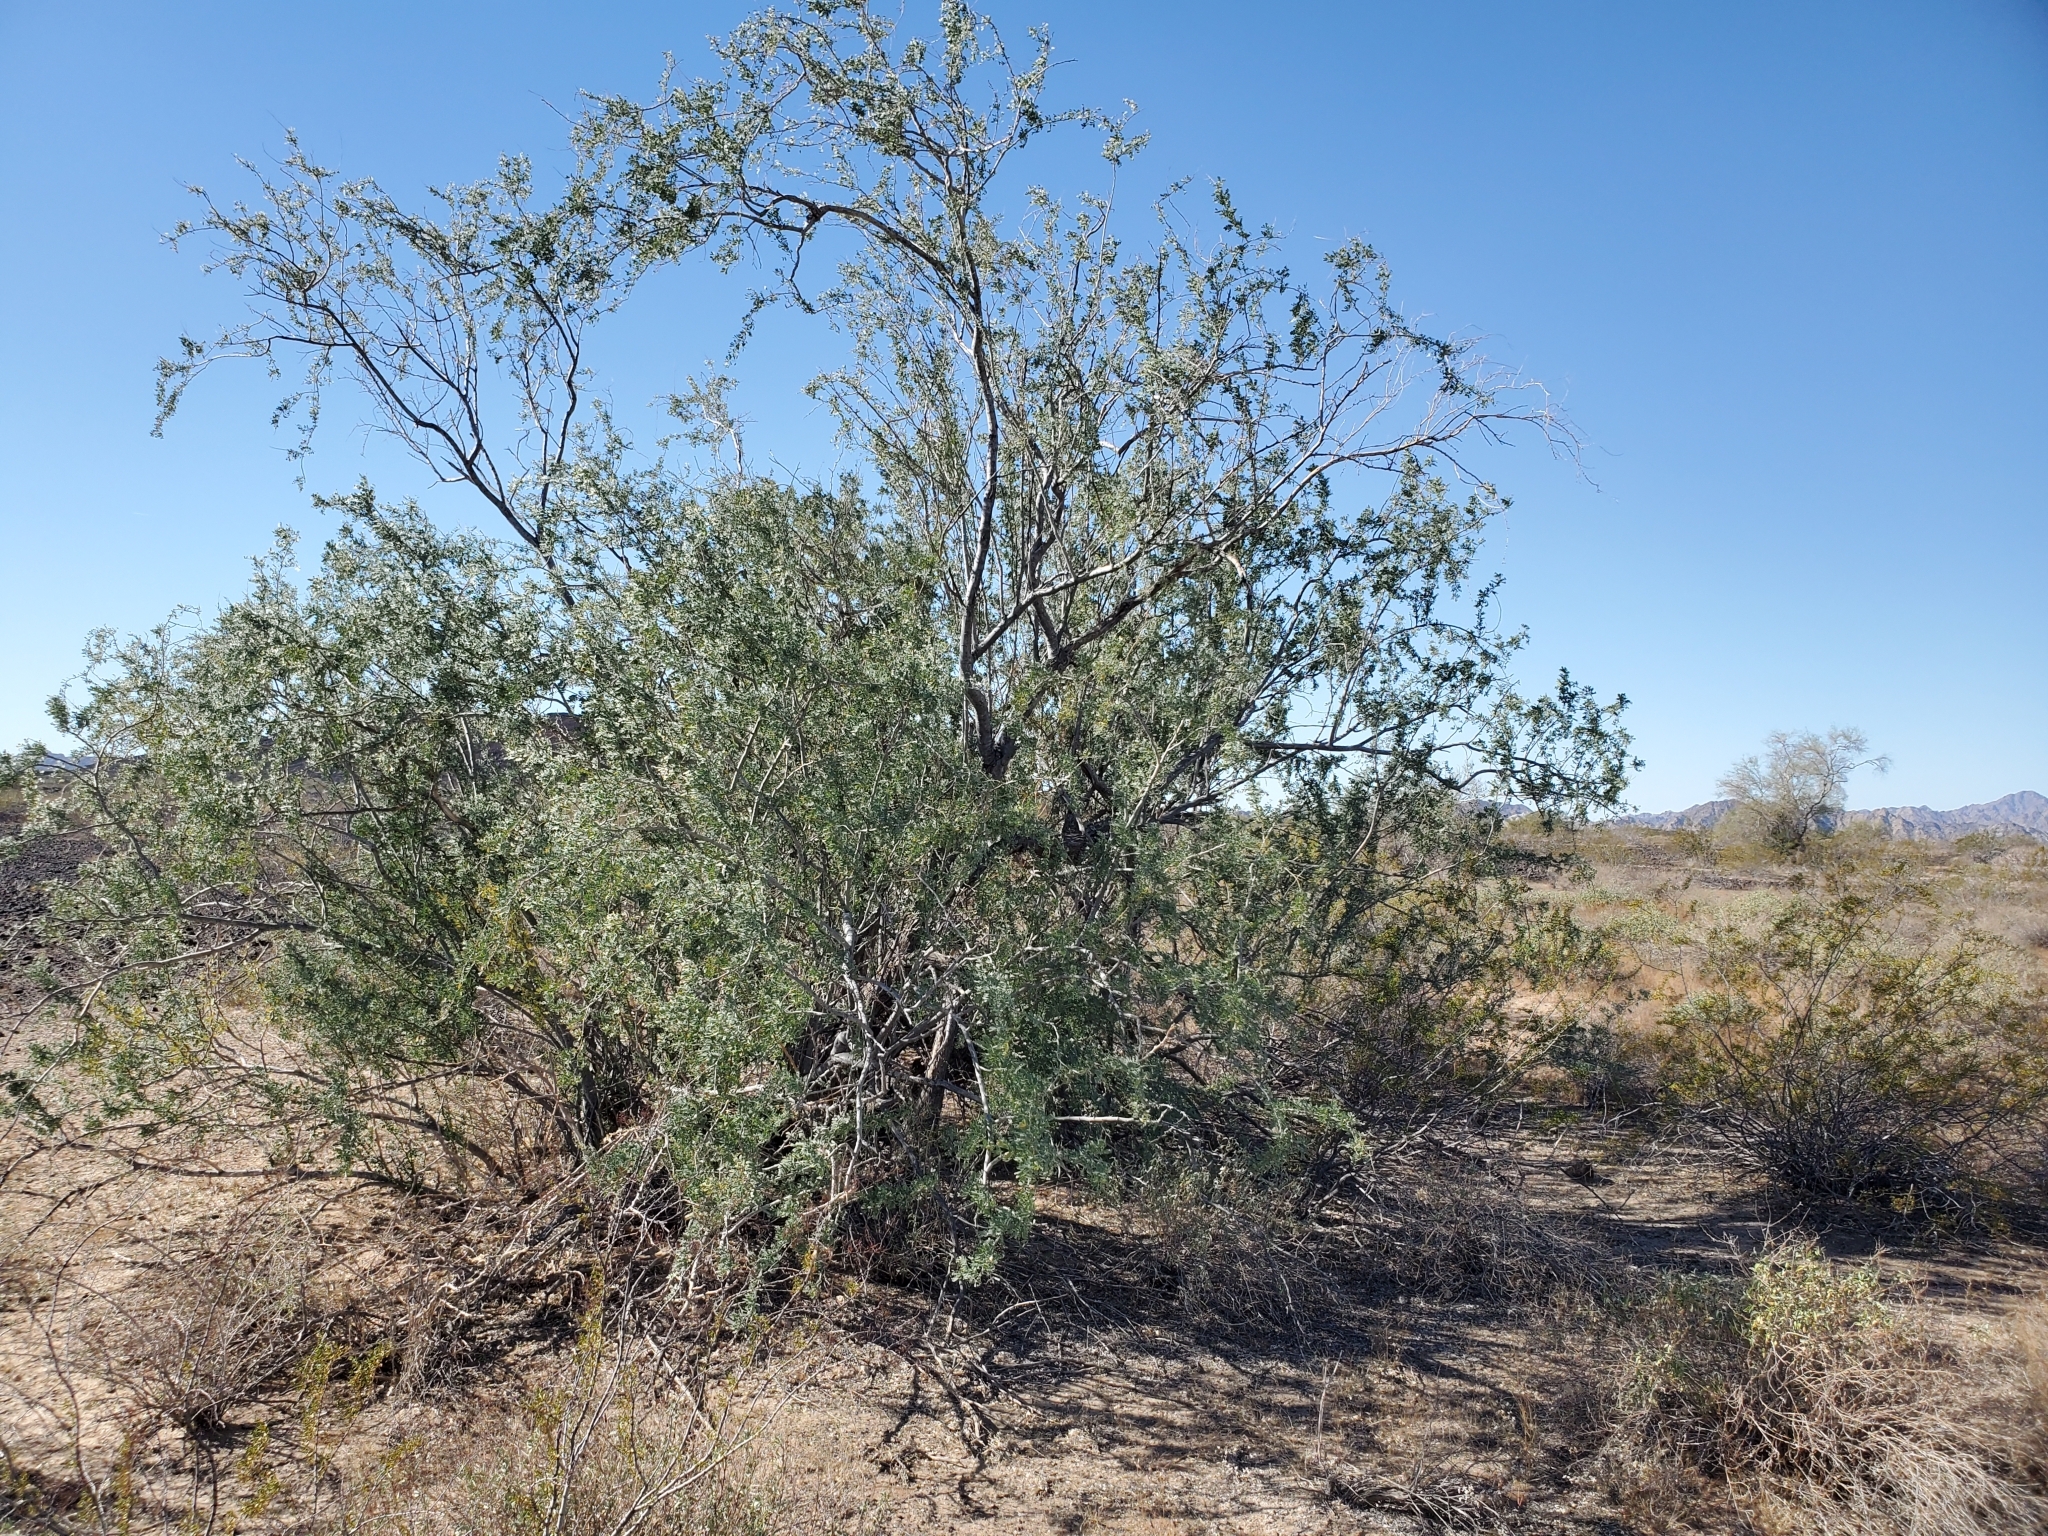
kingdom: Plantae
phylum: Tracheophyta
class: Magnoliopsida
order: Fabales
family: Fabaceae
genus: Olneya
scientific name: Olneya tesota
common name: Desert ironwood
